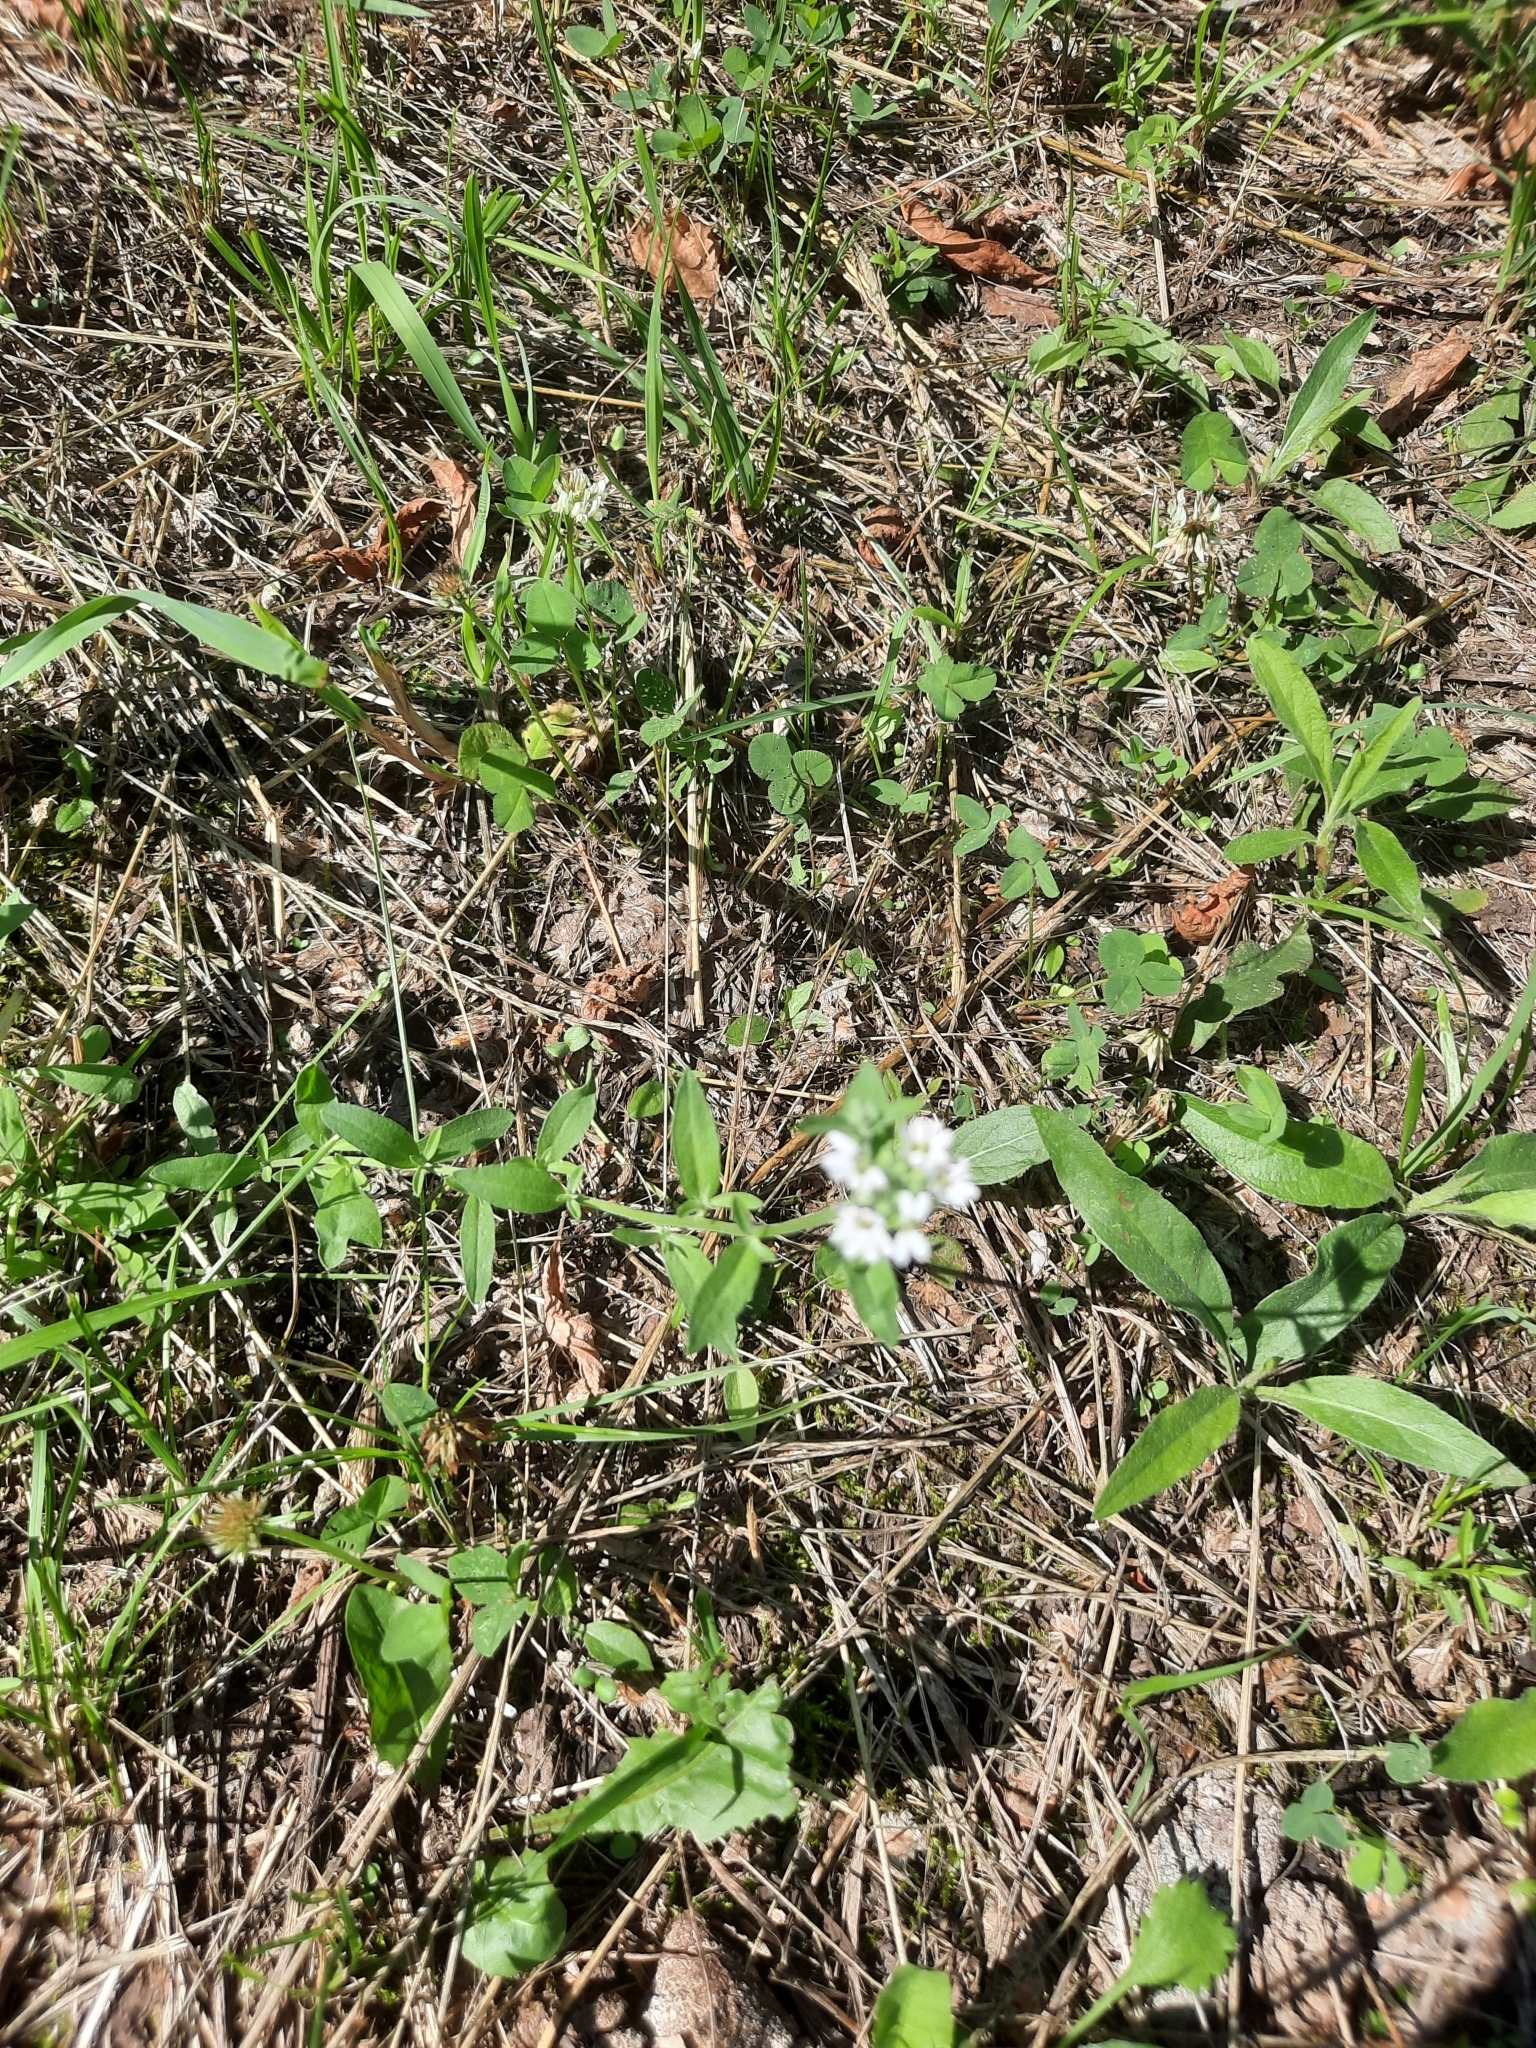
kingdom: Plantae
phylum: Tracheophyta
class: Magnoliopsida
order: Brassicales
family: Brassicaceae
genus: Berteroa
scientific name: Berteroa incana
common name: Hoary alison
